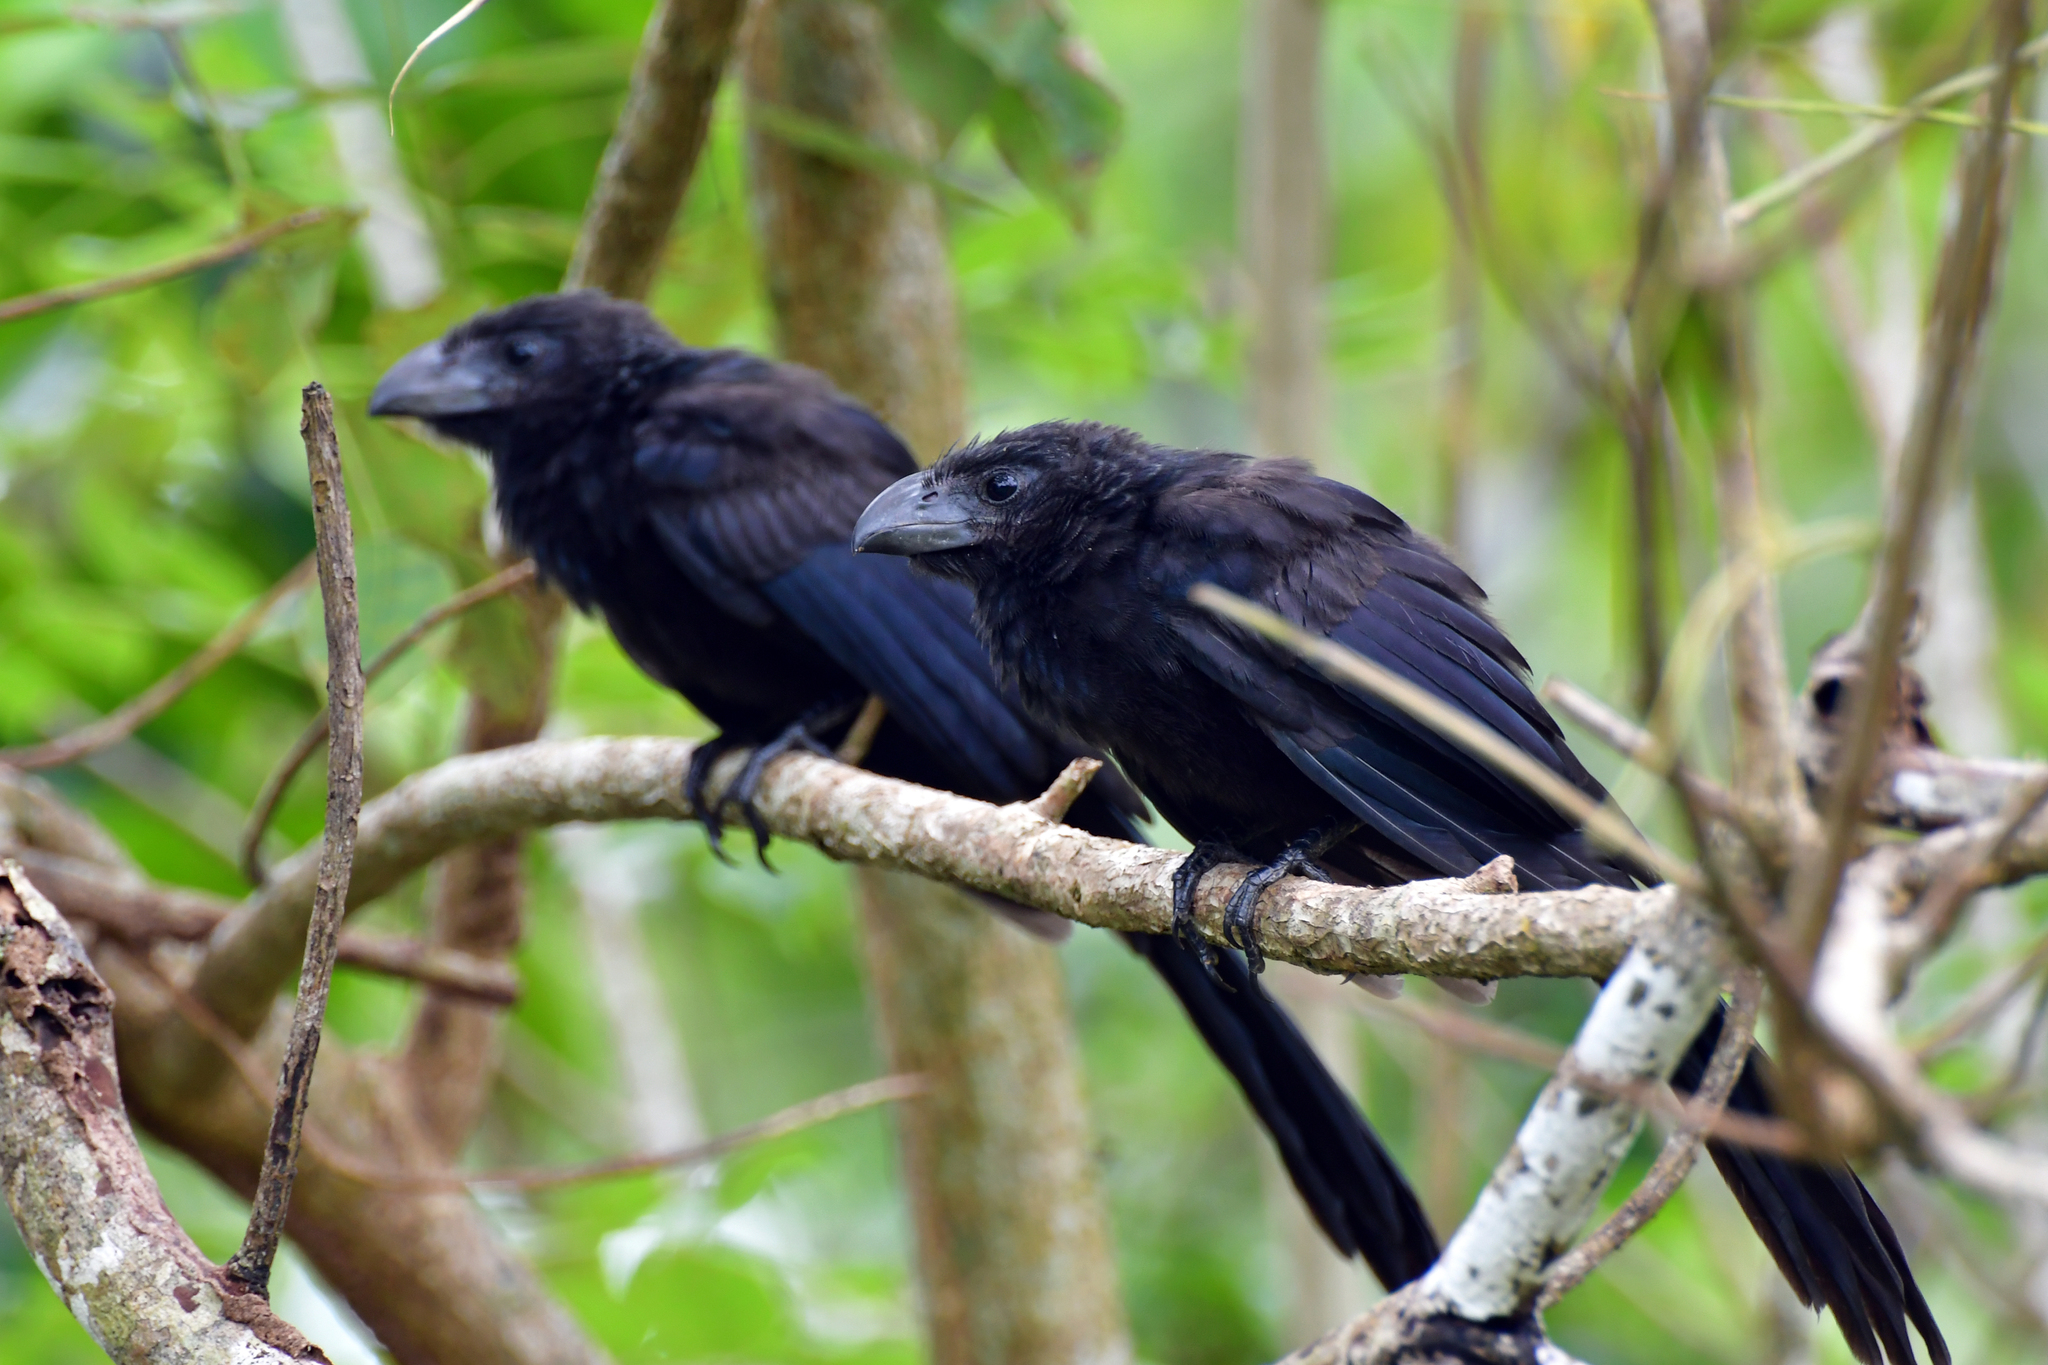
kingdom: Animalia
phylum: Chordata
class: Aves
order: Cuculiformes
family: Cuculidae
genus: Crotophaga
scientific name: Crotophaga ani
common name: Smooth-billed ani
